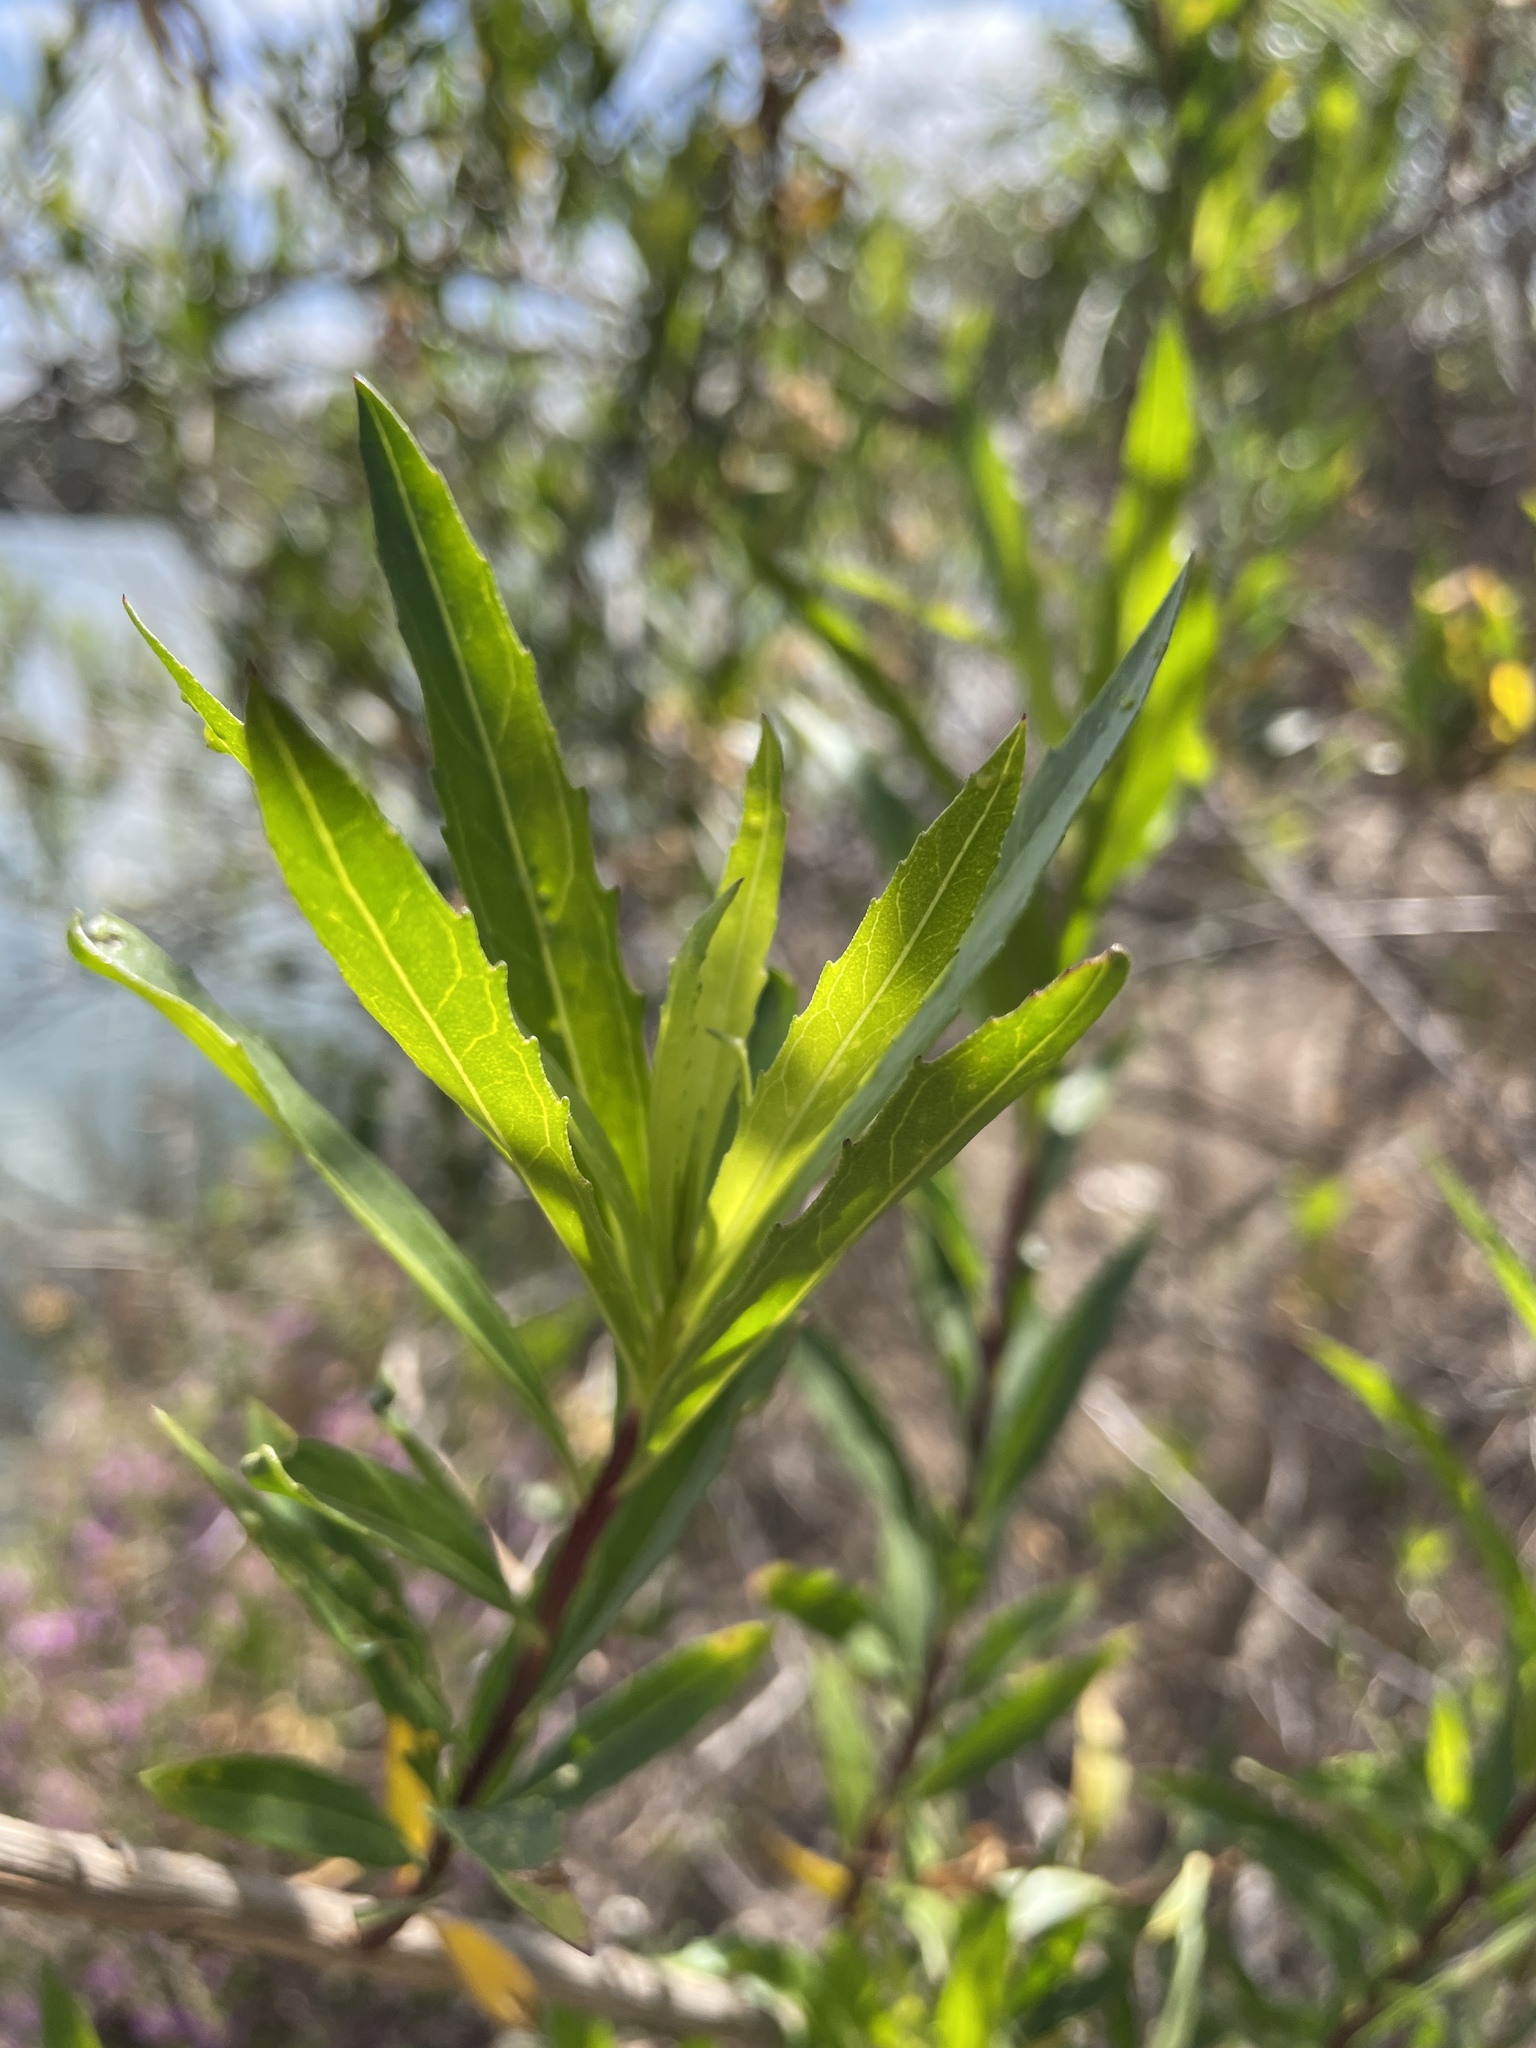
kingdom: Plantae
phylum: Tracheophyta
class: Magnoliopsida
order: Asterales
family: Asteraceae
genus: Baccharis
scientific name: Baccharis salicifolia
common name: Sticky baccharis
